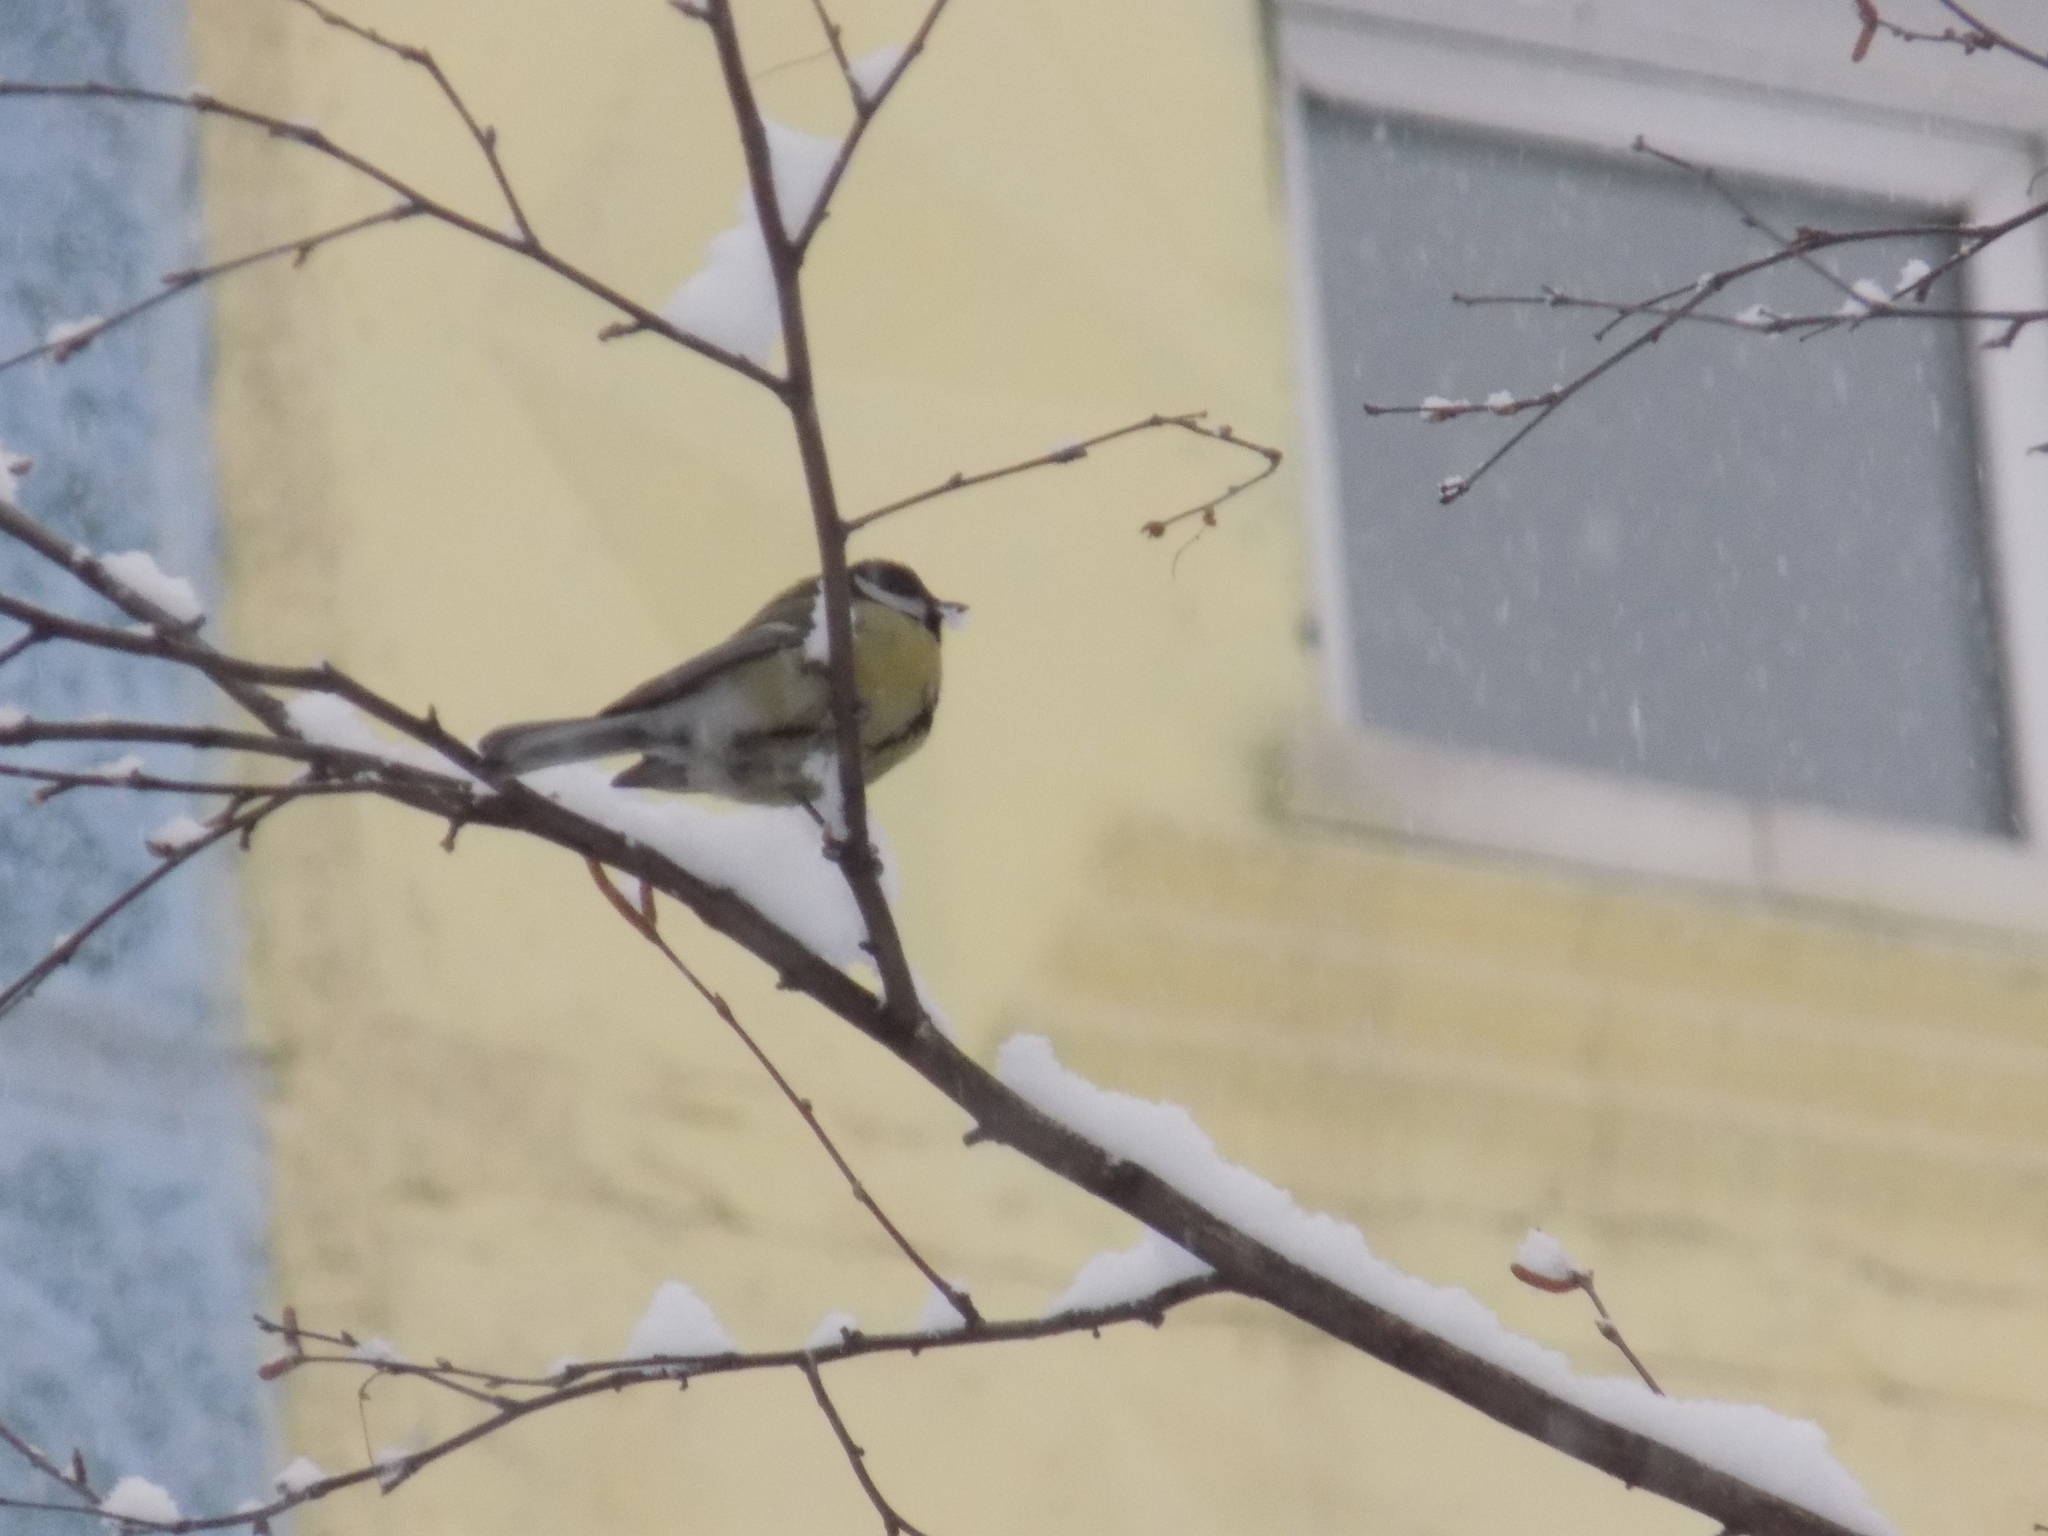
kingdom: Animalia
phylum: Chordata
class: Aves
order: Passeriformes
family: Paridae
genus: Parus
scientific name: Parus major
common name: Great tit
